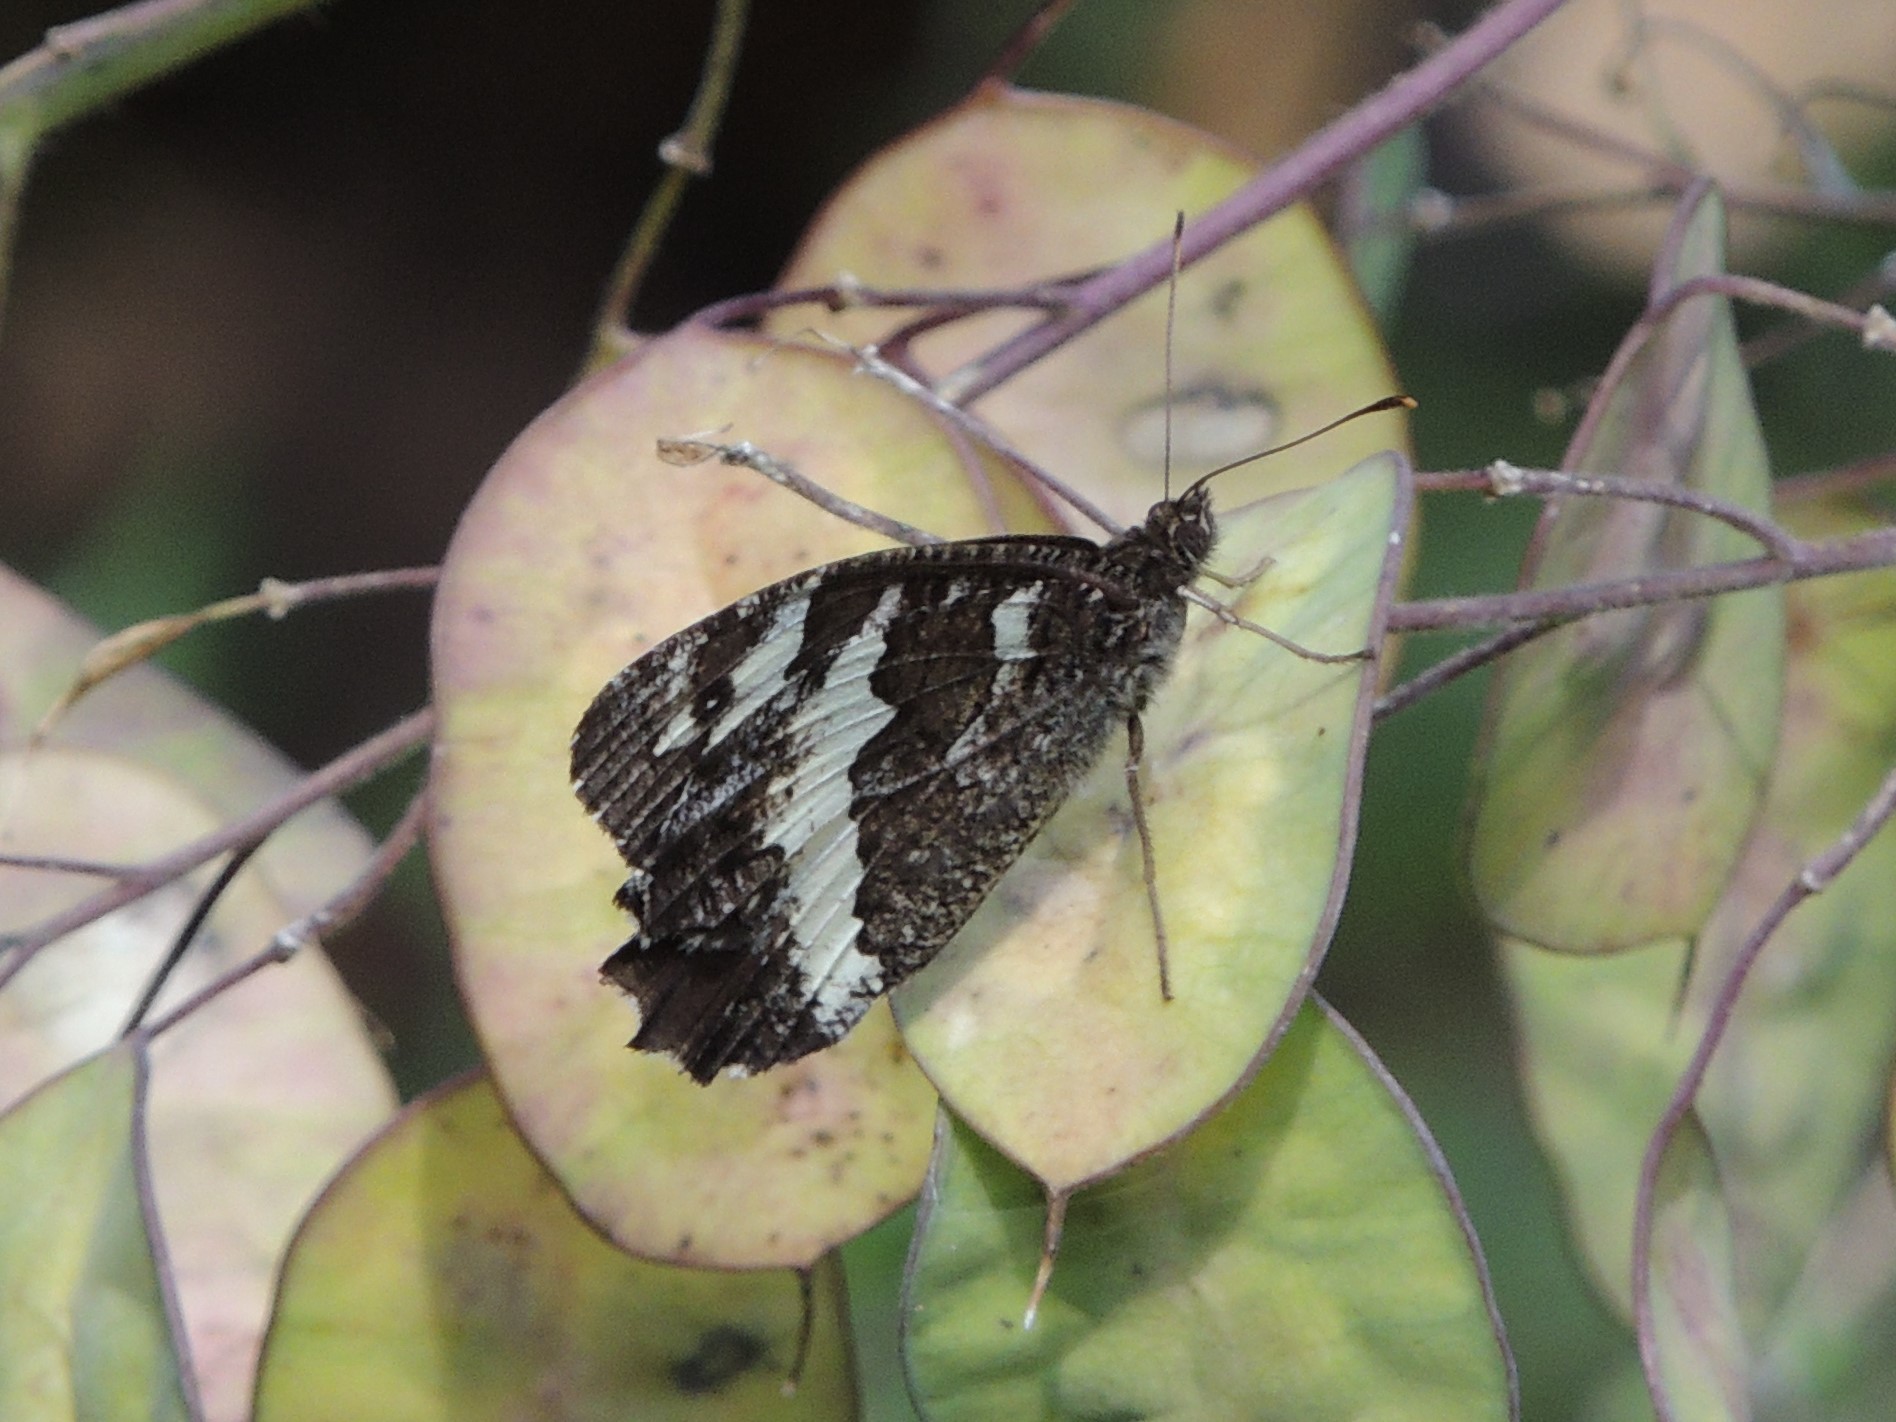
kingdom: Animalia
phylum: Arthropoda
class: Insecta
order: Lepidoptera
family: Lycaenidae
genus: Loweia
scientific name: Loweia tityrus
